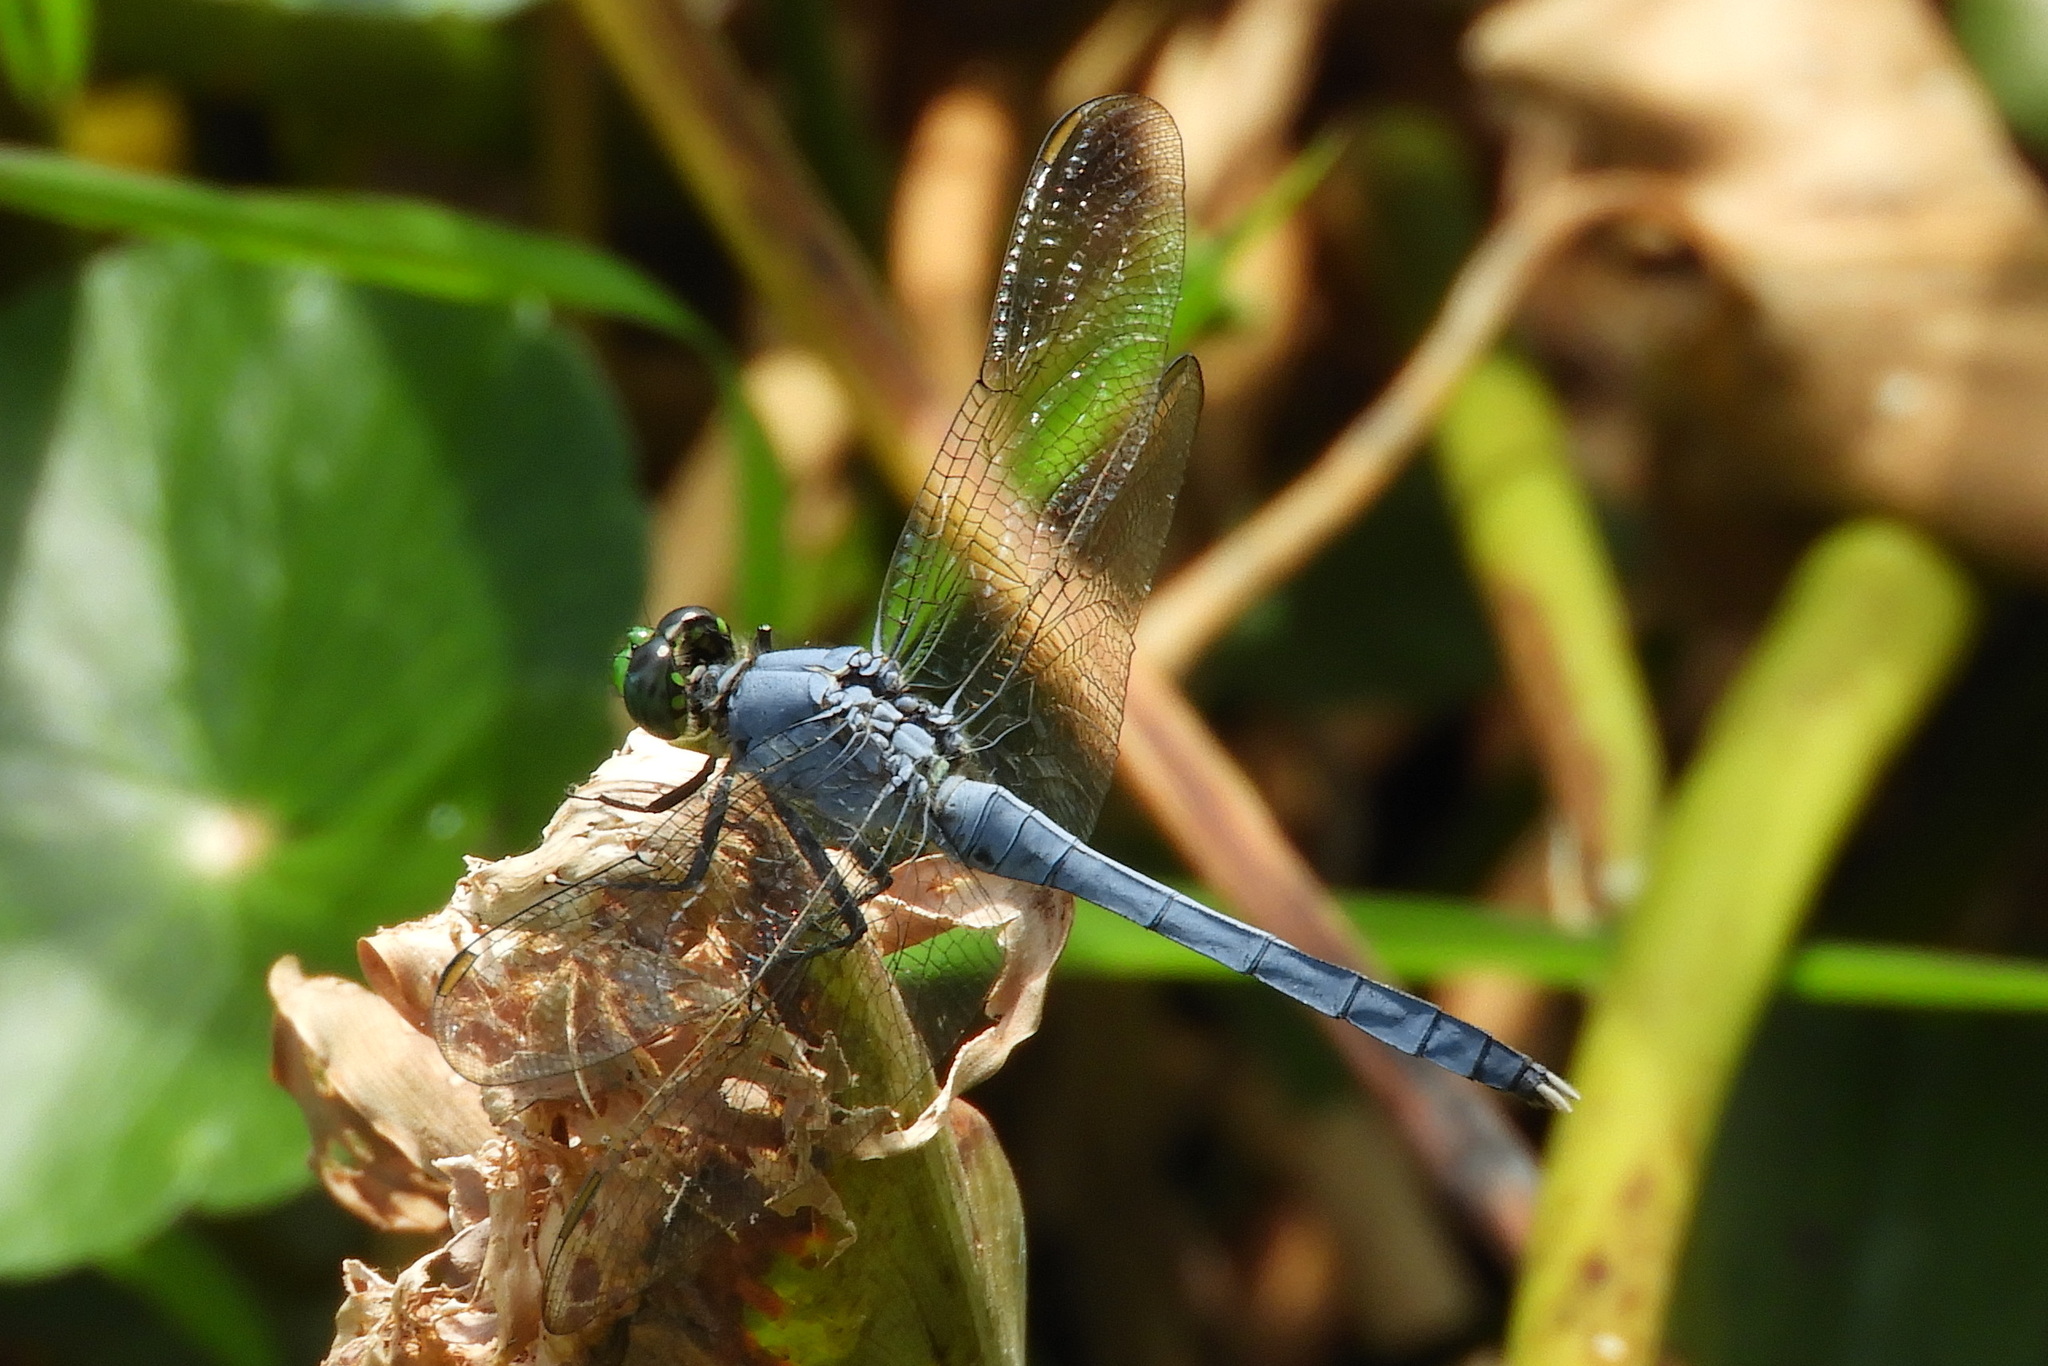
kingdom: Animalia
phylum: Arthropoda
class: Insecta
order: Odonata
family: Libellulidae
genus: Erythemis
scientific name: Erythemis simplicicollis
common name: Eastern pondhawk
